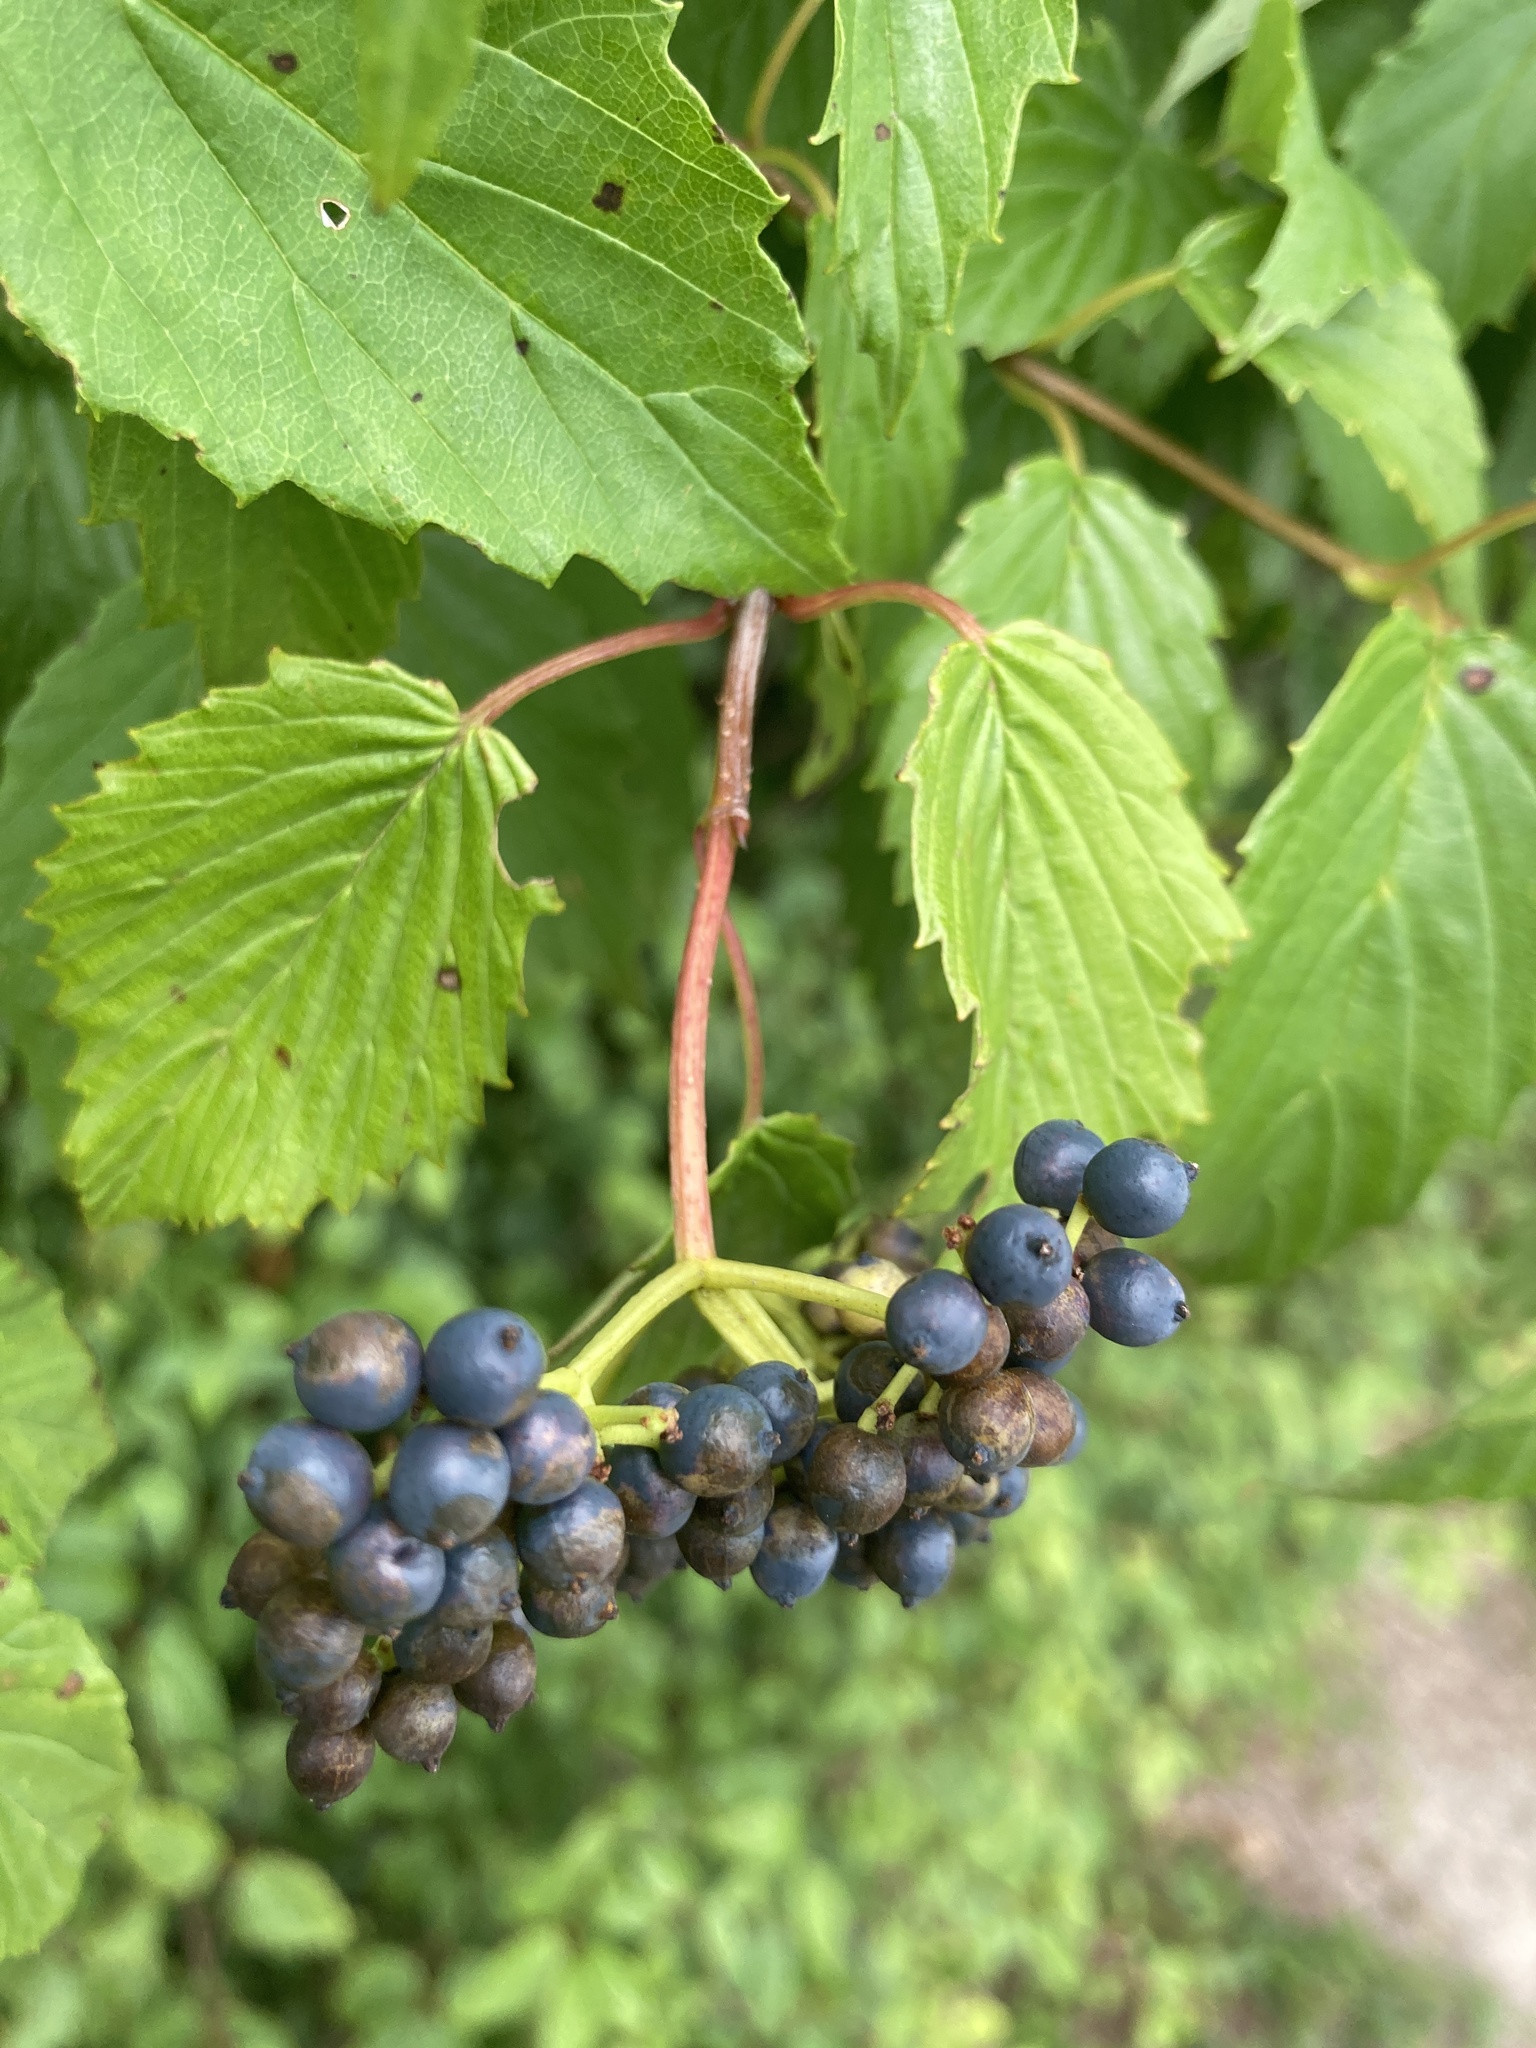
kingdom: Plantae
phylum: Tracheophyta
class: Magnoliopsida
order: Dipsacales
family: Viburnaceae
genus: Viburnum
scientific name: Viburnum dentatum
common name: Arrow-wood
